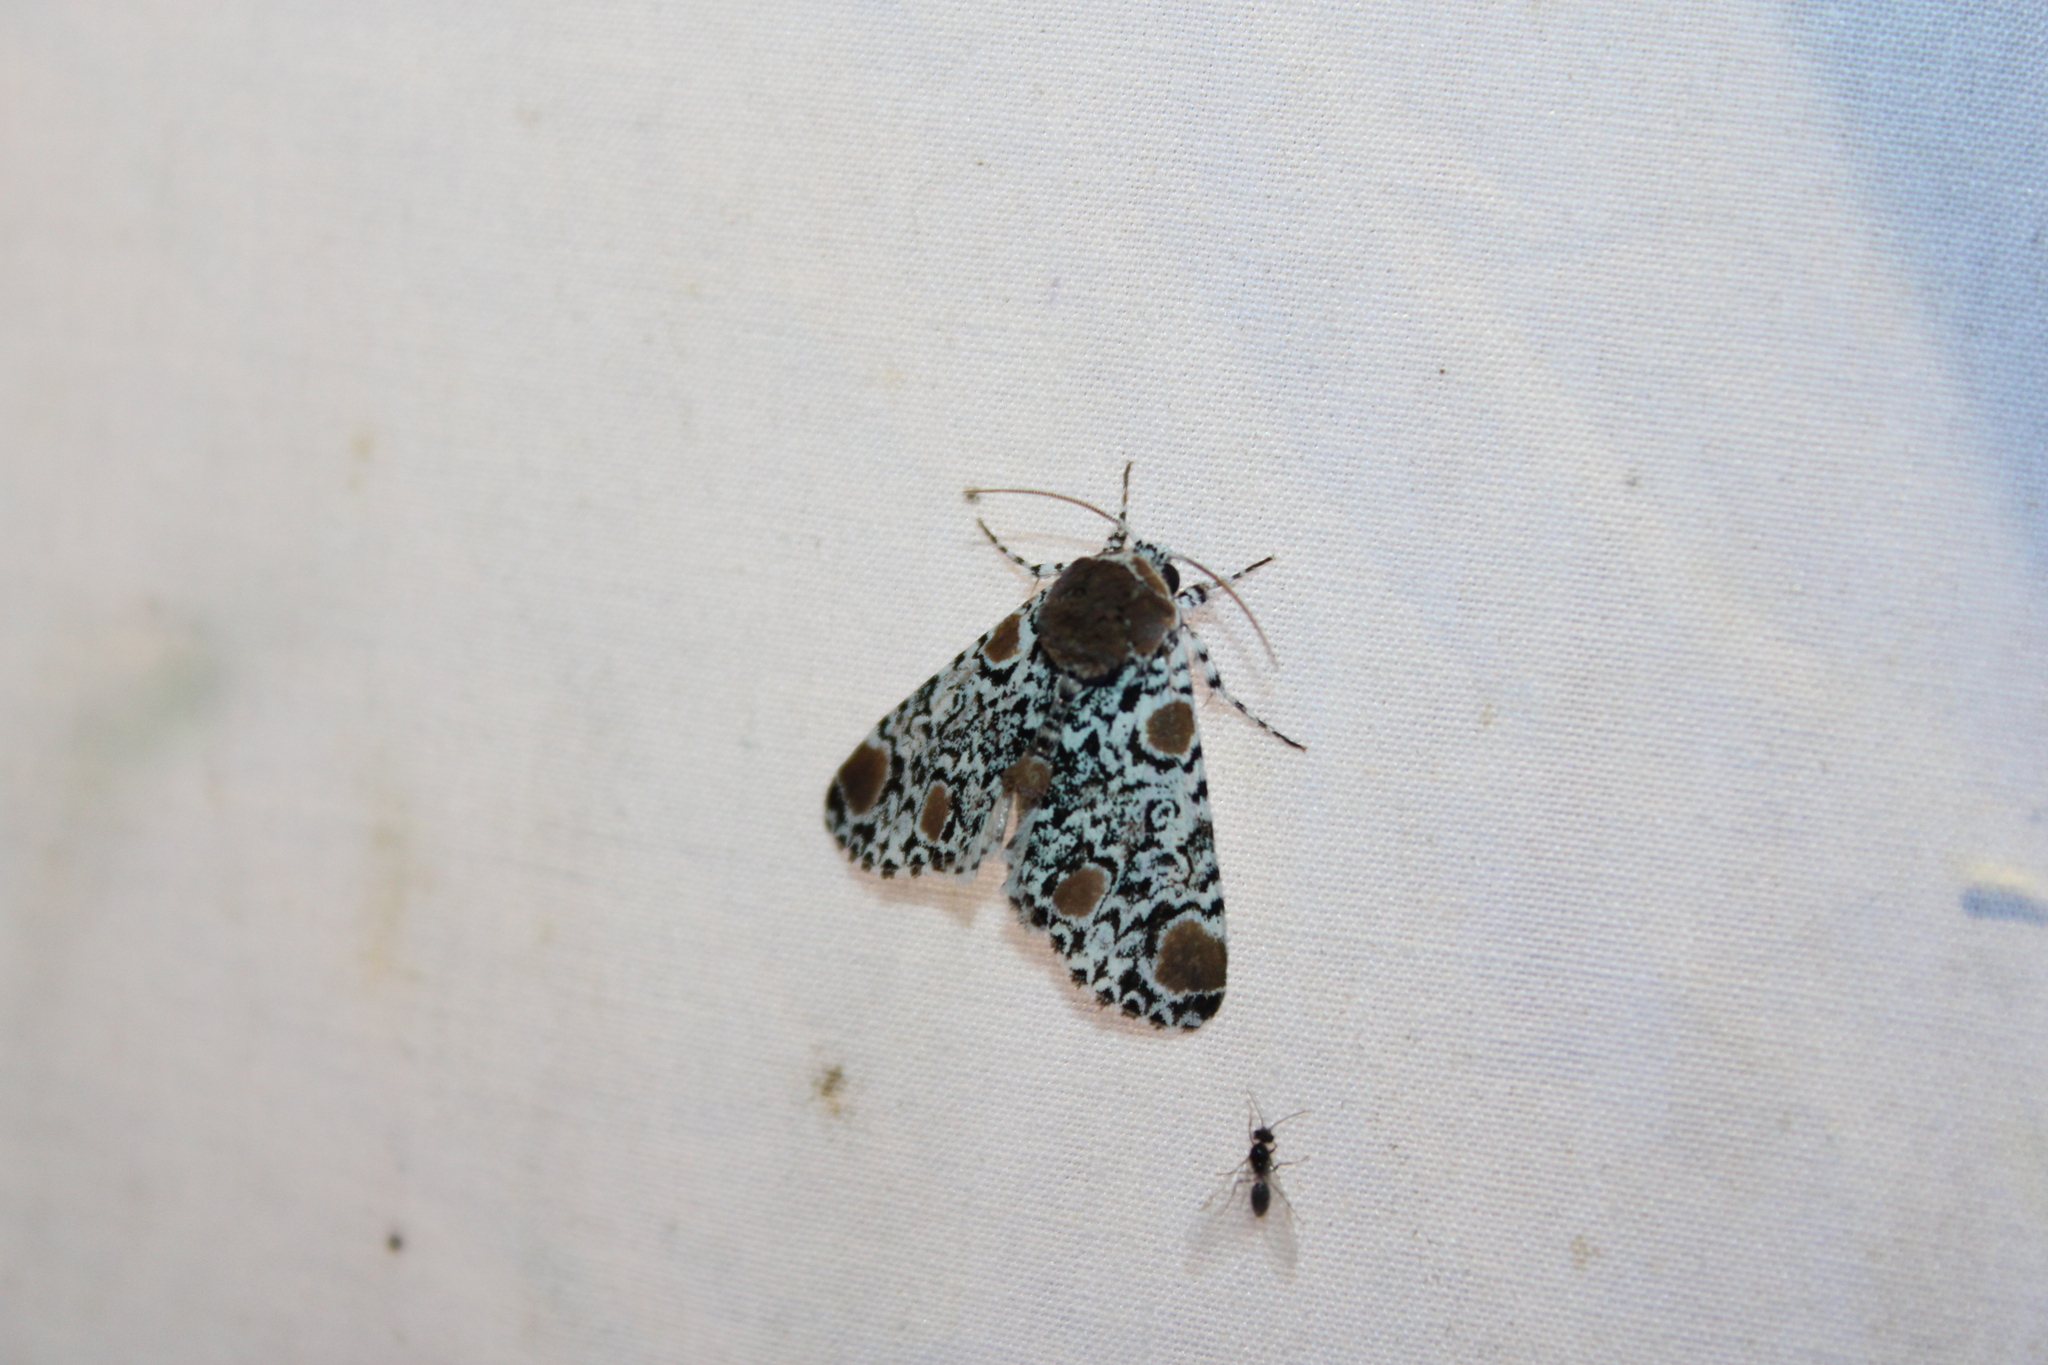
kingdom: Animalia
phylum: Arthropoda
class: Insecta
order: Lepidoptera
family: Noctuidae
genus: Harrisimemna
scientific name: Harrisimemna trisignata
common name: Harris threespot
